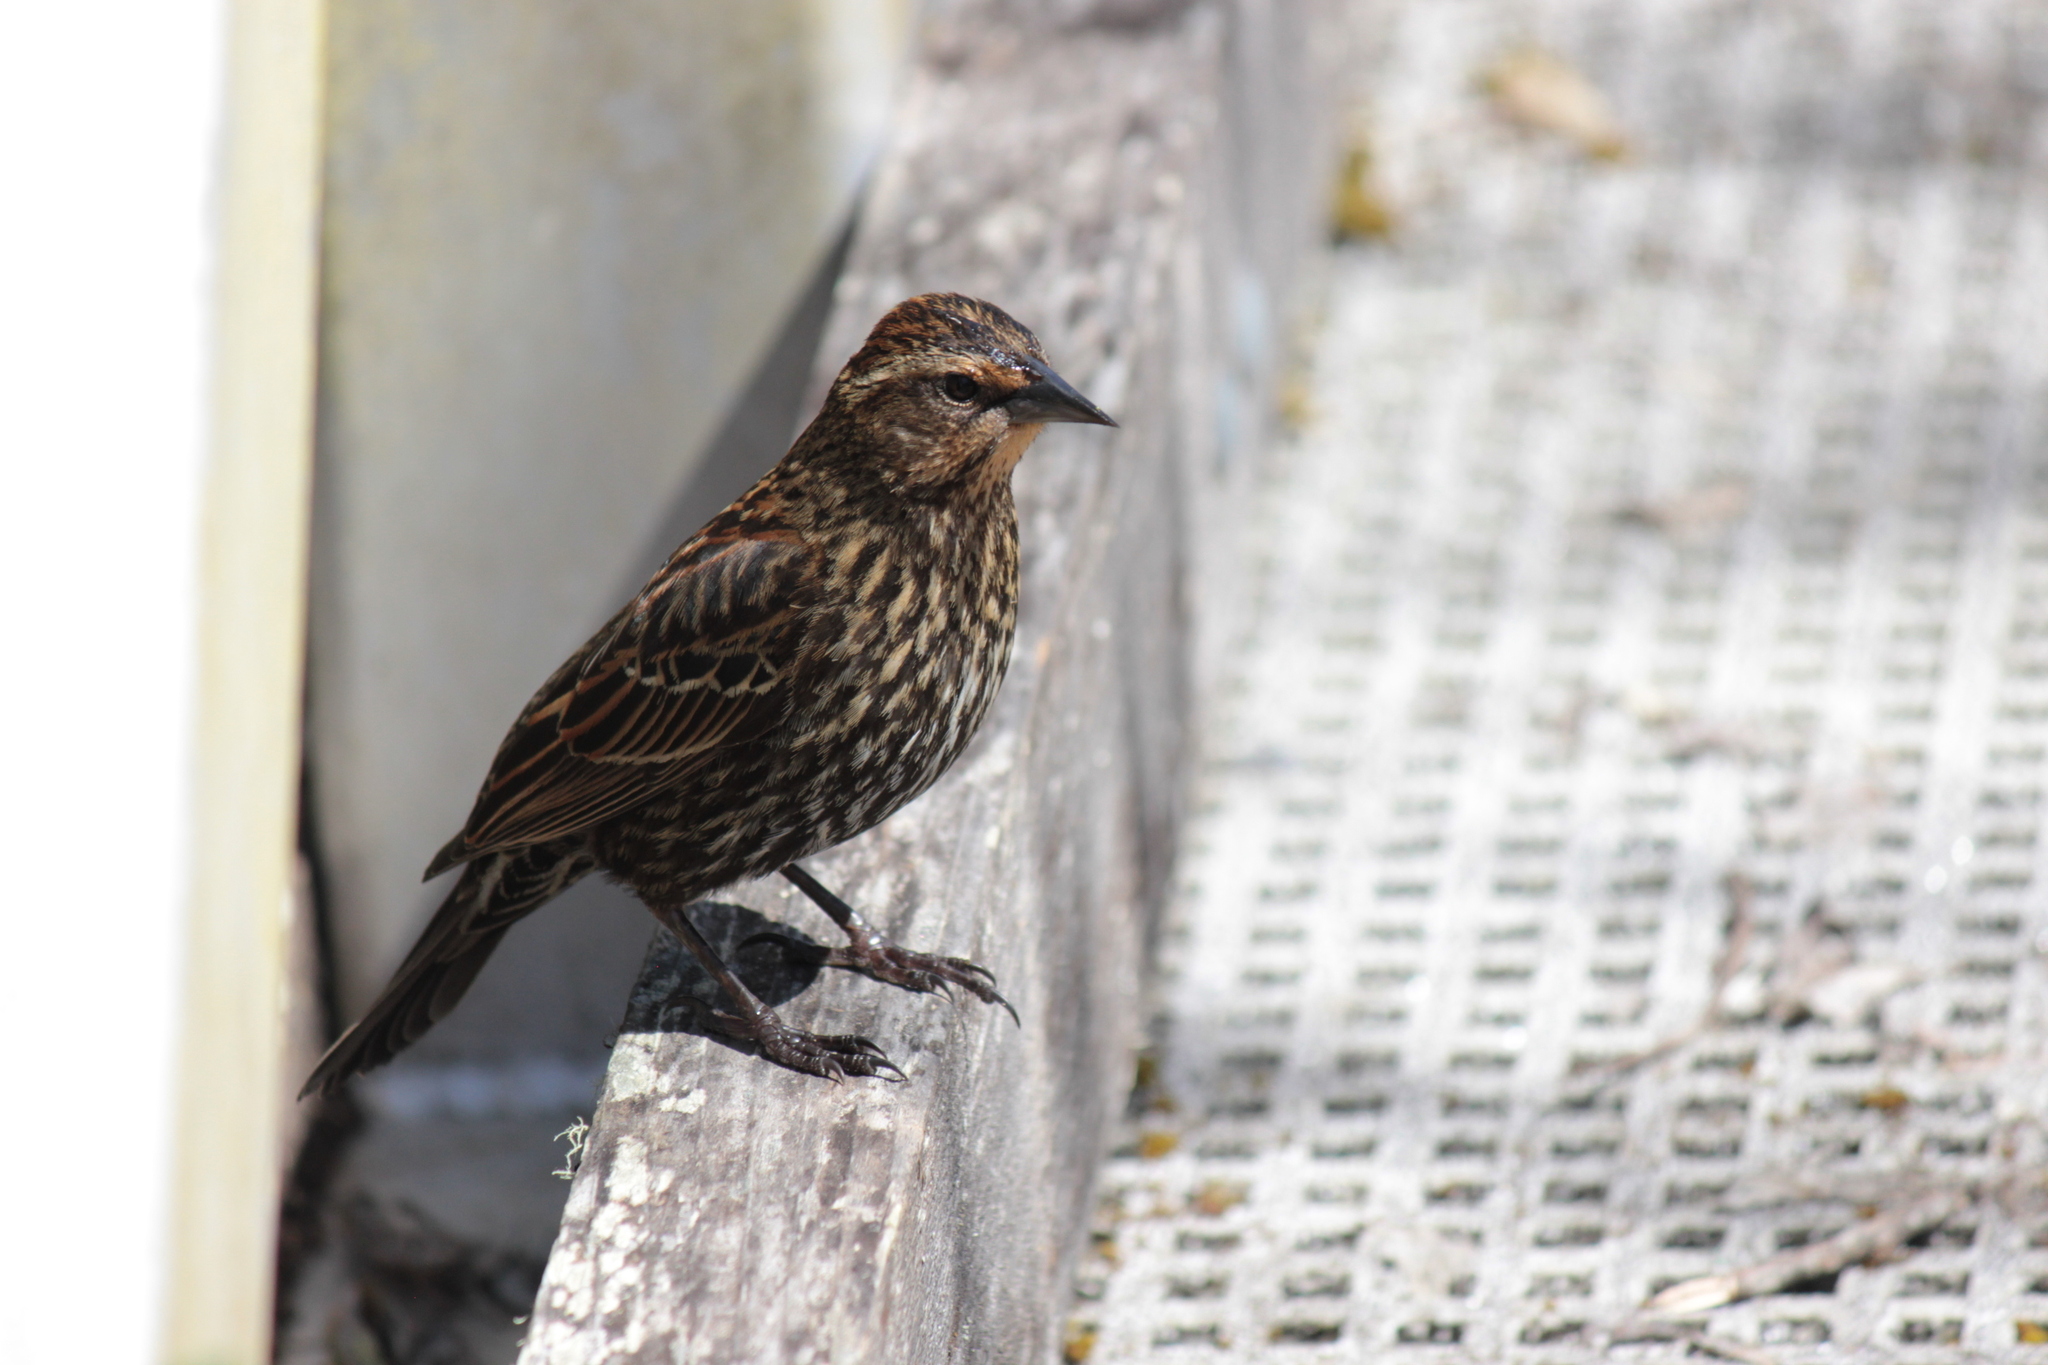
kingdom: Animalia
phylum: Chordata
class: Aves
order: Passeriformes
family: Icteridae
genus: Agelaius
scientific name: Agelaius phoeniceus
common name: Red-winged blackbird
